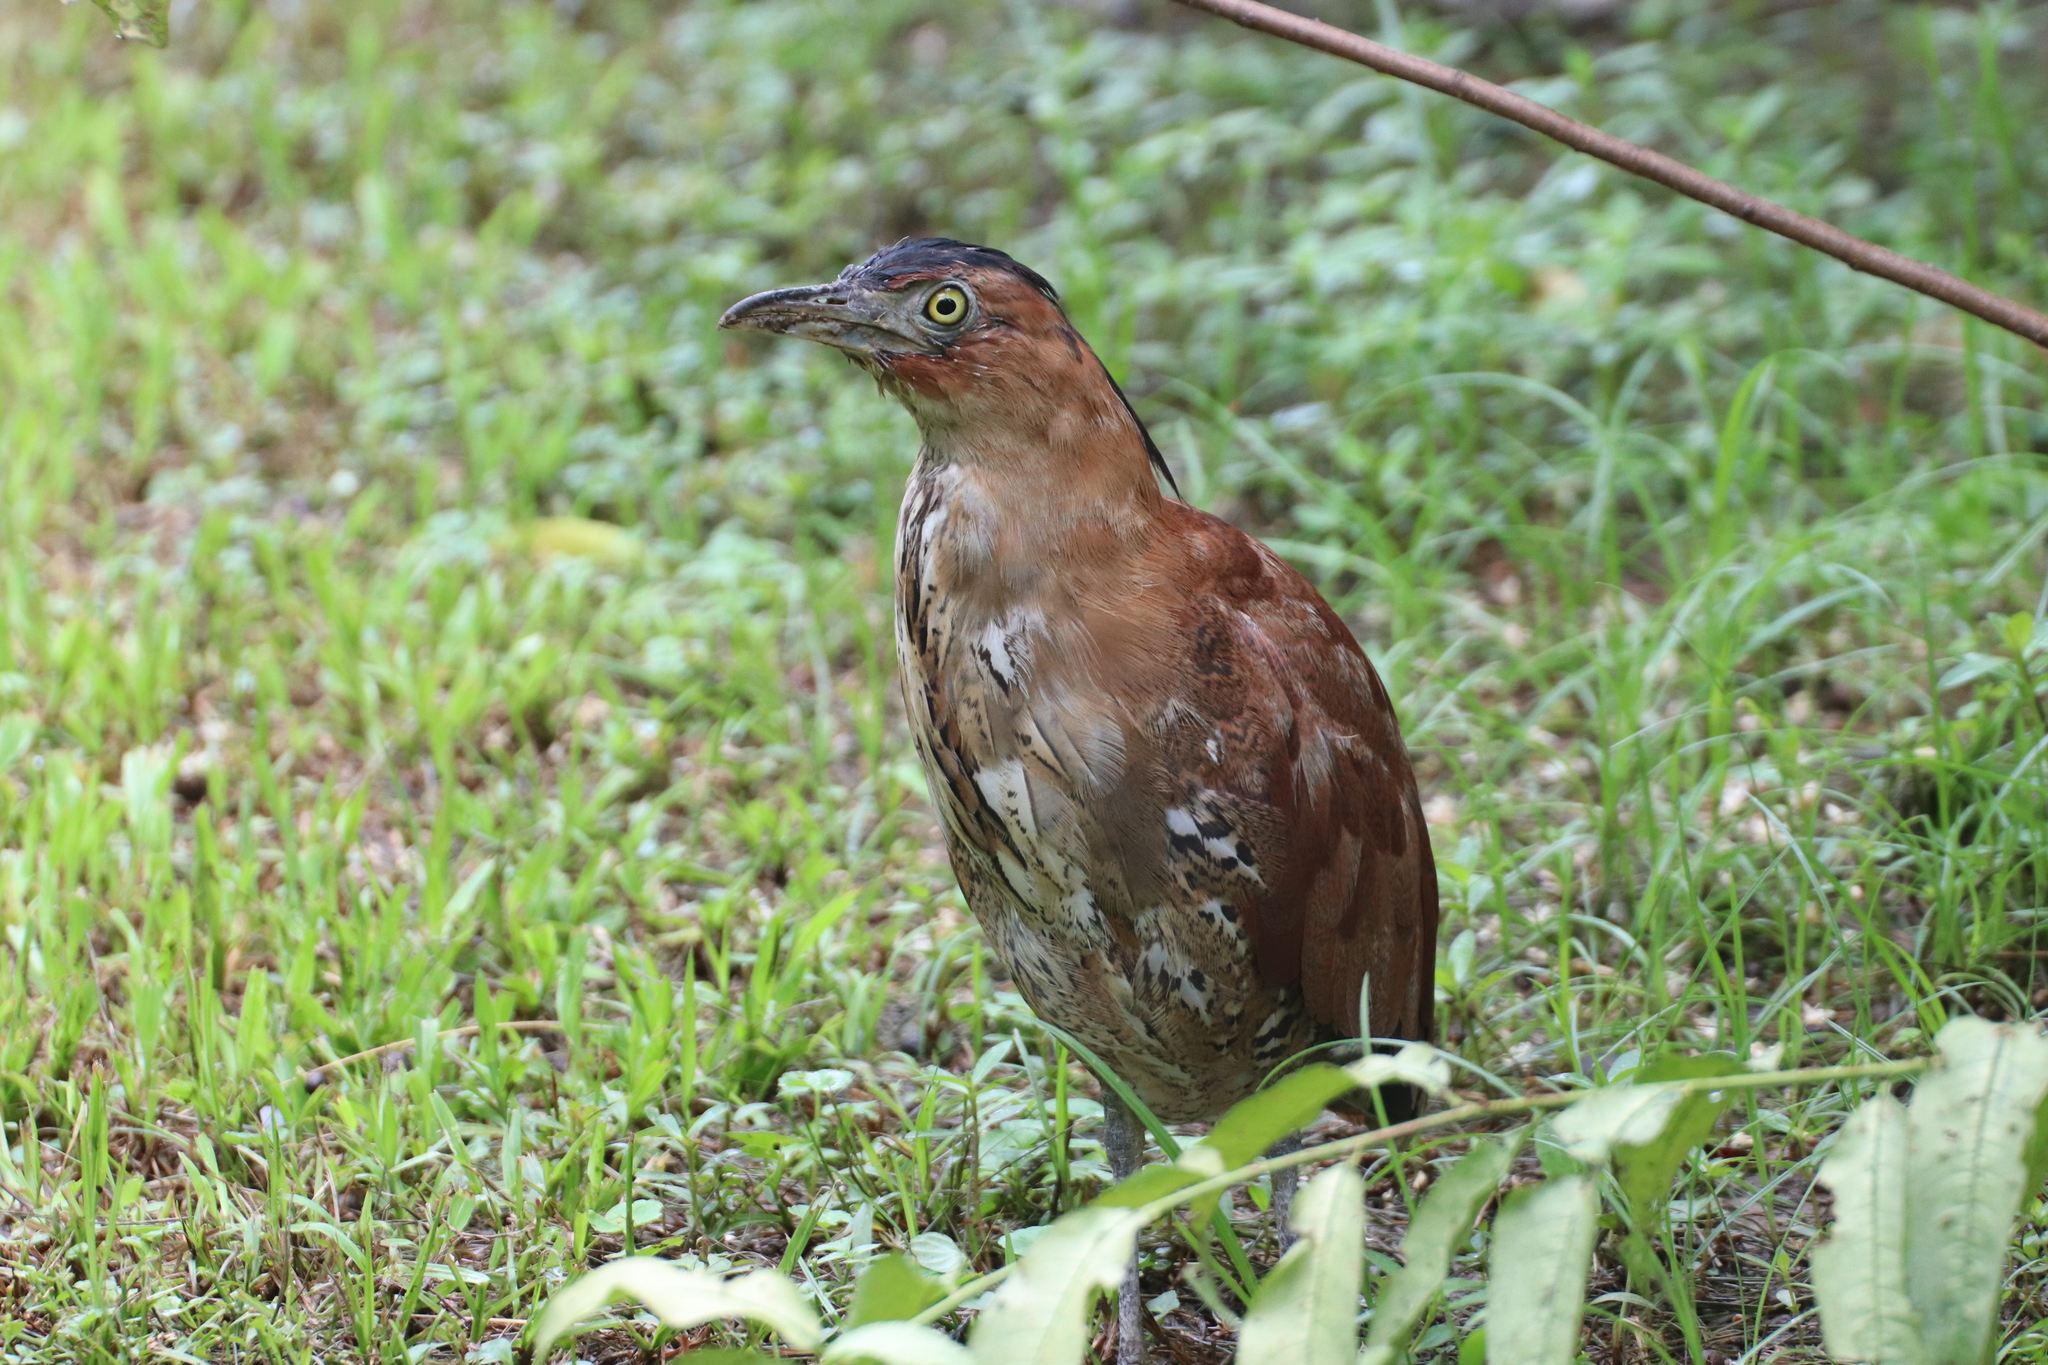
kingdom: Animalia
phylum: Chordata
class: Aves
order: Pelecaniformes
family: Ardeidae
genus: Gorsachius
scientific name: Gorsachius melanolophus
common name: Malayan night heron
